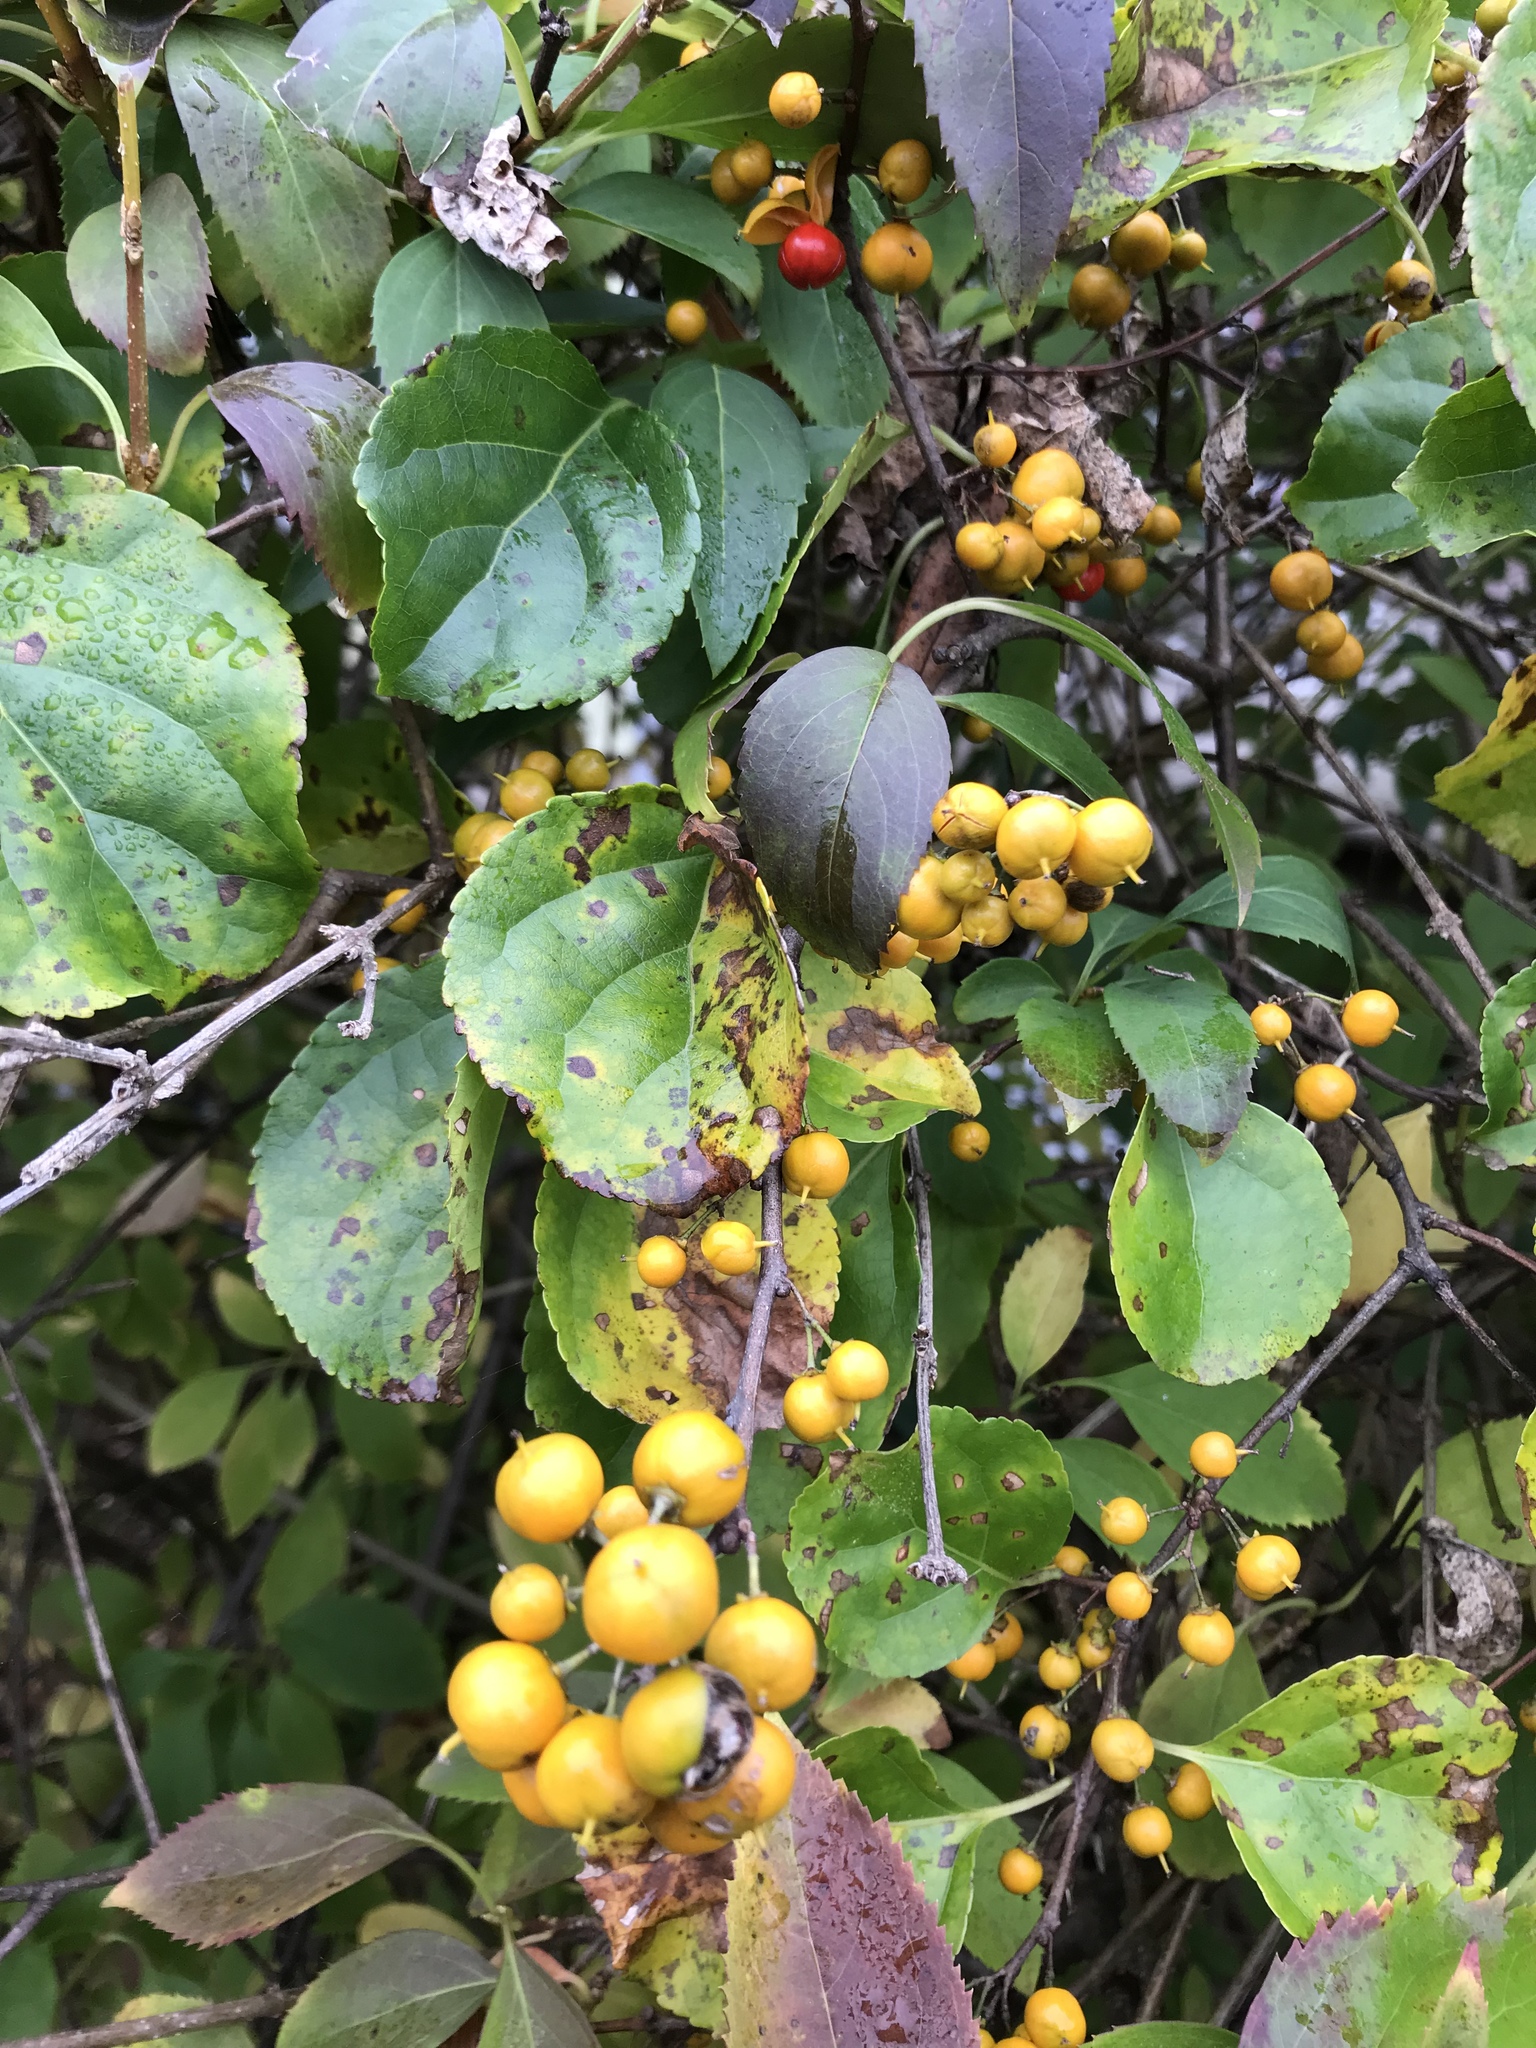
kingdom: Plantae
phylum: Tracheophyta
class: Magnoliopsida
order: Celastrales
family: Celastraceae
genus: Celastrus
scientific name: Celastrus orbiculatus
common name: Oriental bittersweet
